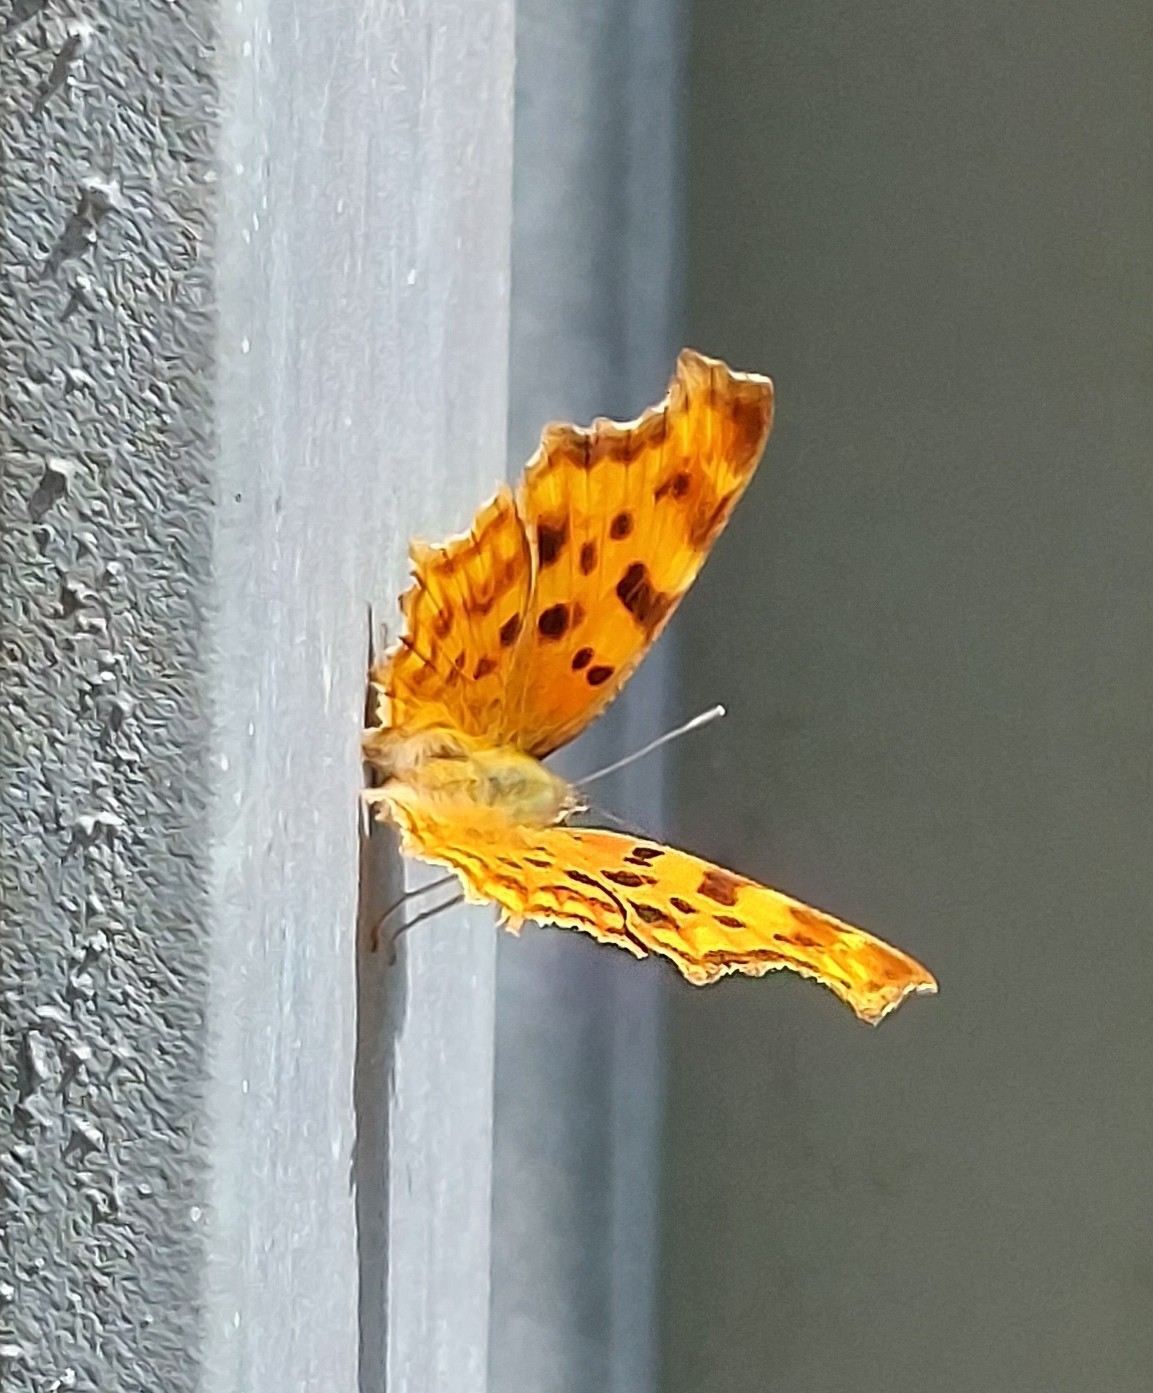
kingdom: Animalia
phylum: Arthropoda
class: Insecta
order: Lepidoptera
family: Nymphalidae
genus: Polygonia
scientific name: Polygonia c-album
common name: Comma
